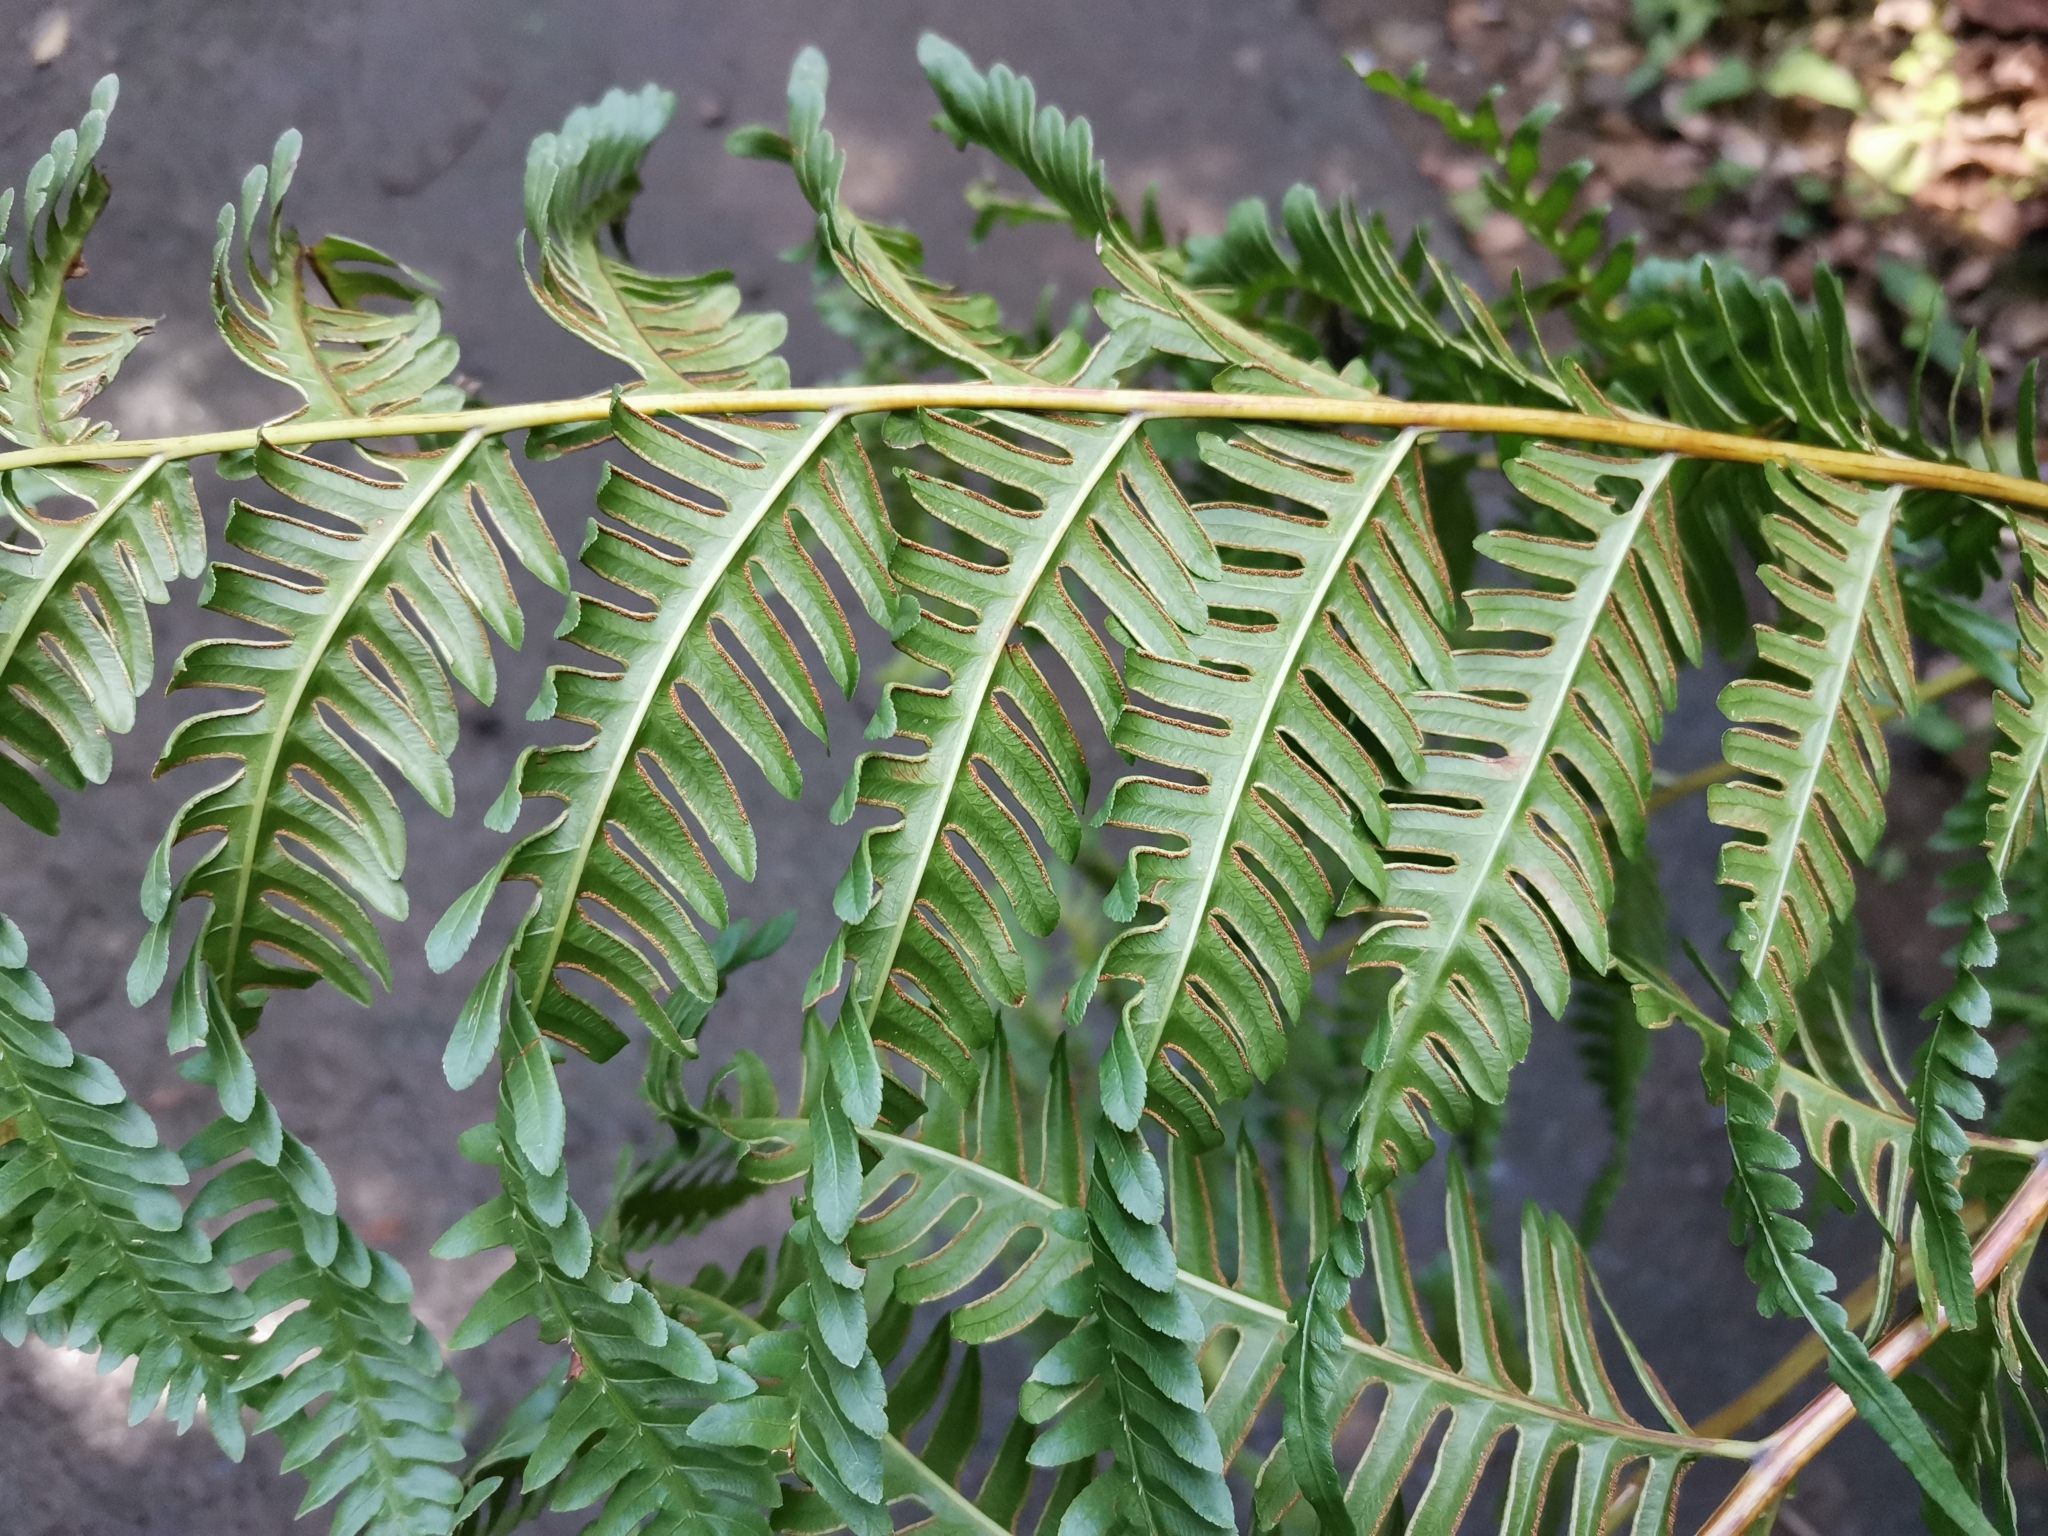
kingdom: Plantae
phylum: Tracheophyta
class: Polypodiopsida
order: Polypodiales
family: Pteridaceae
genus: Pteris
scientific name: Pteris wallichiana
